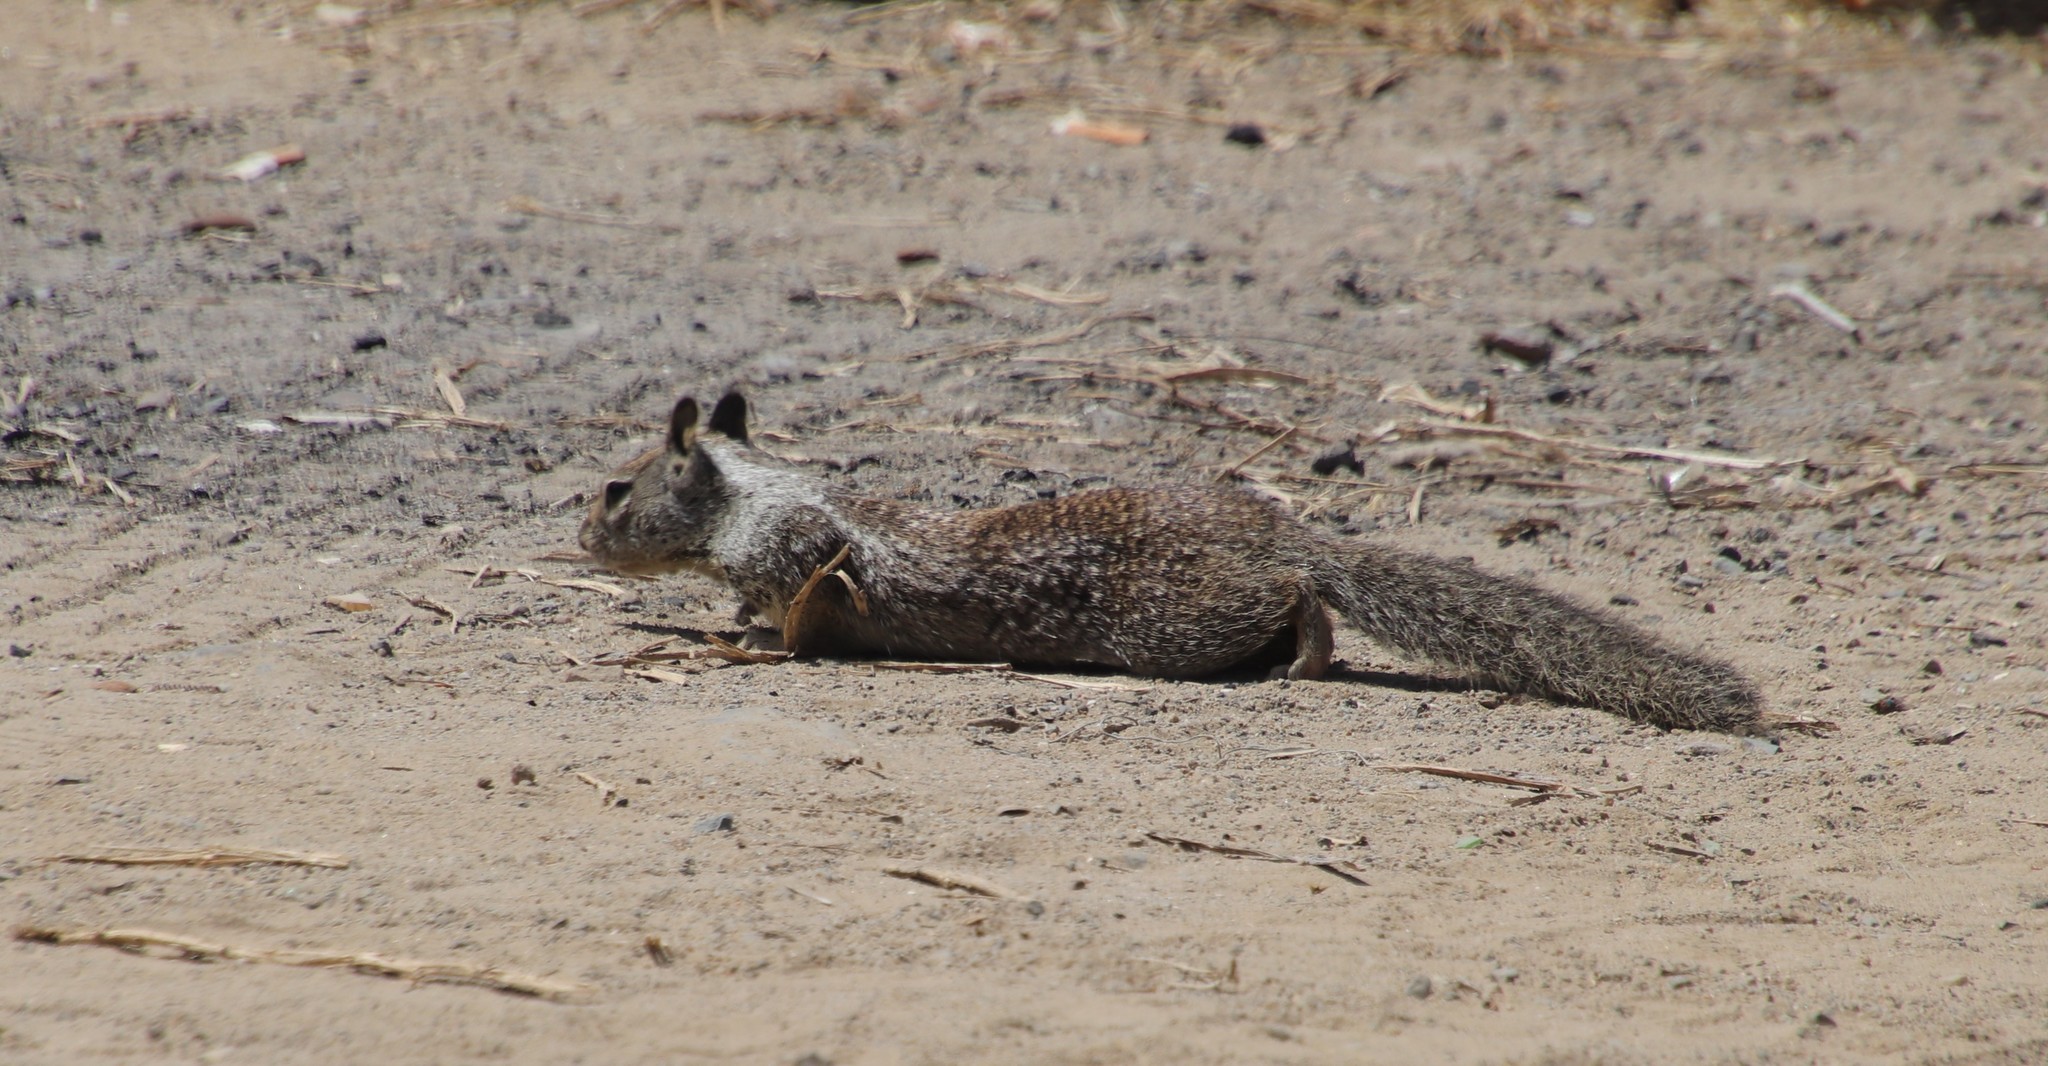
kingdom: Animalia
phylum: Chordata
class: Mammalia
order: Rodentia
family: Sciuridae
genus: Otospermophilus
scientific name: Otospermophilus beecheyi
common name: California ground squirrel
